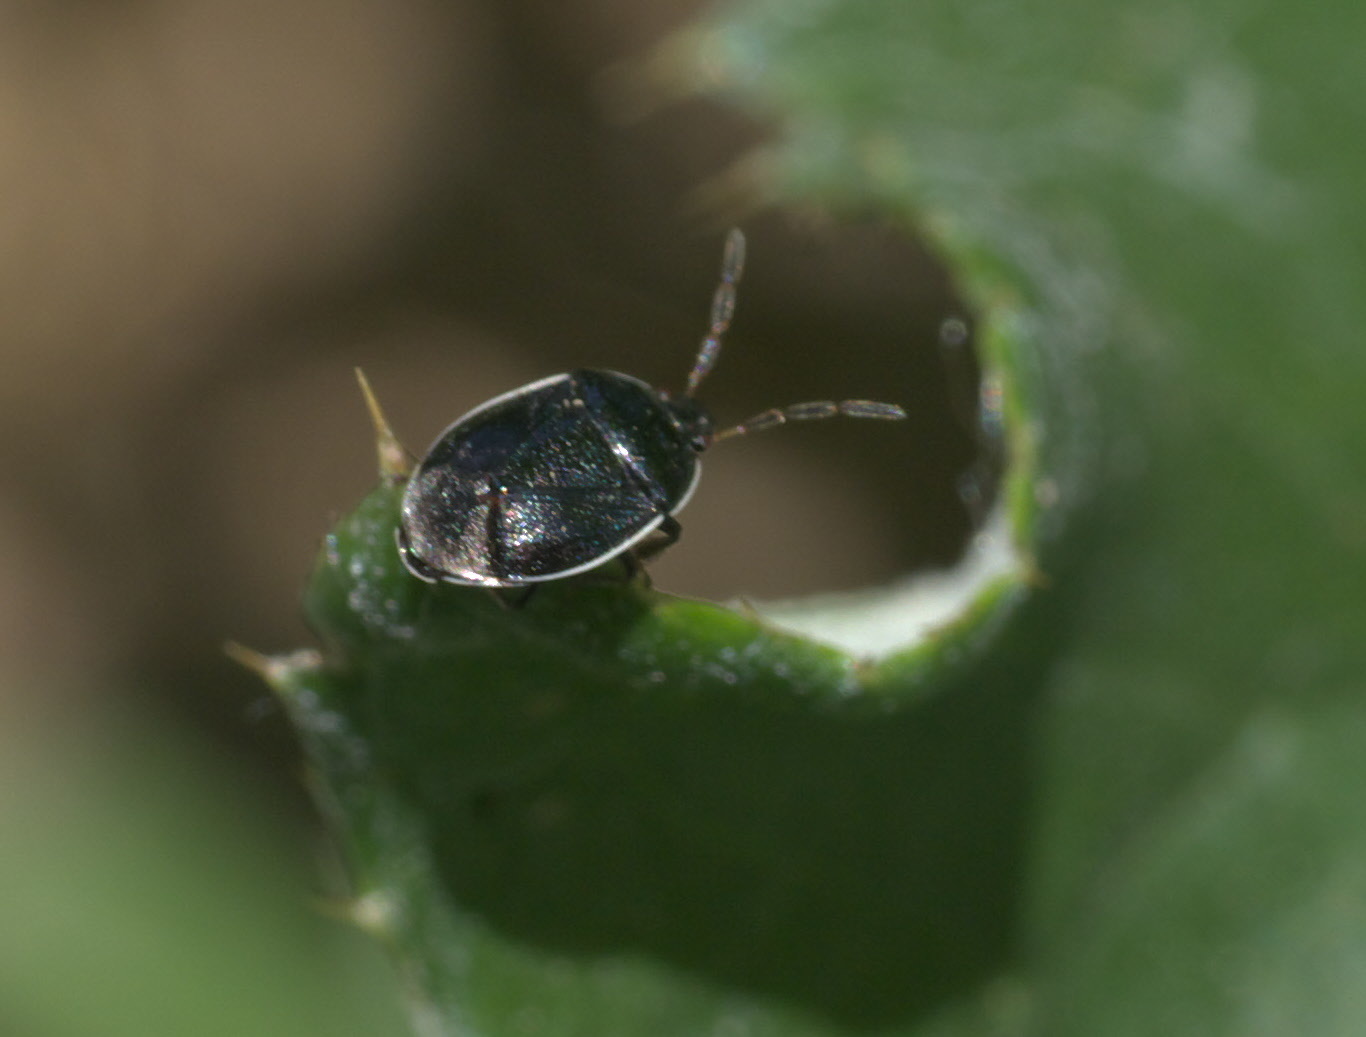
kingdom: Animalia
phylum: Arthropoda
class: Insecta
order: Hemiptera
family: Cydnidae
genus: Sehirus
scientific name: Sehirus cinctus
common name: White-margined burrower bug
